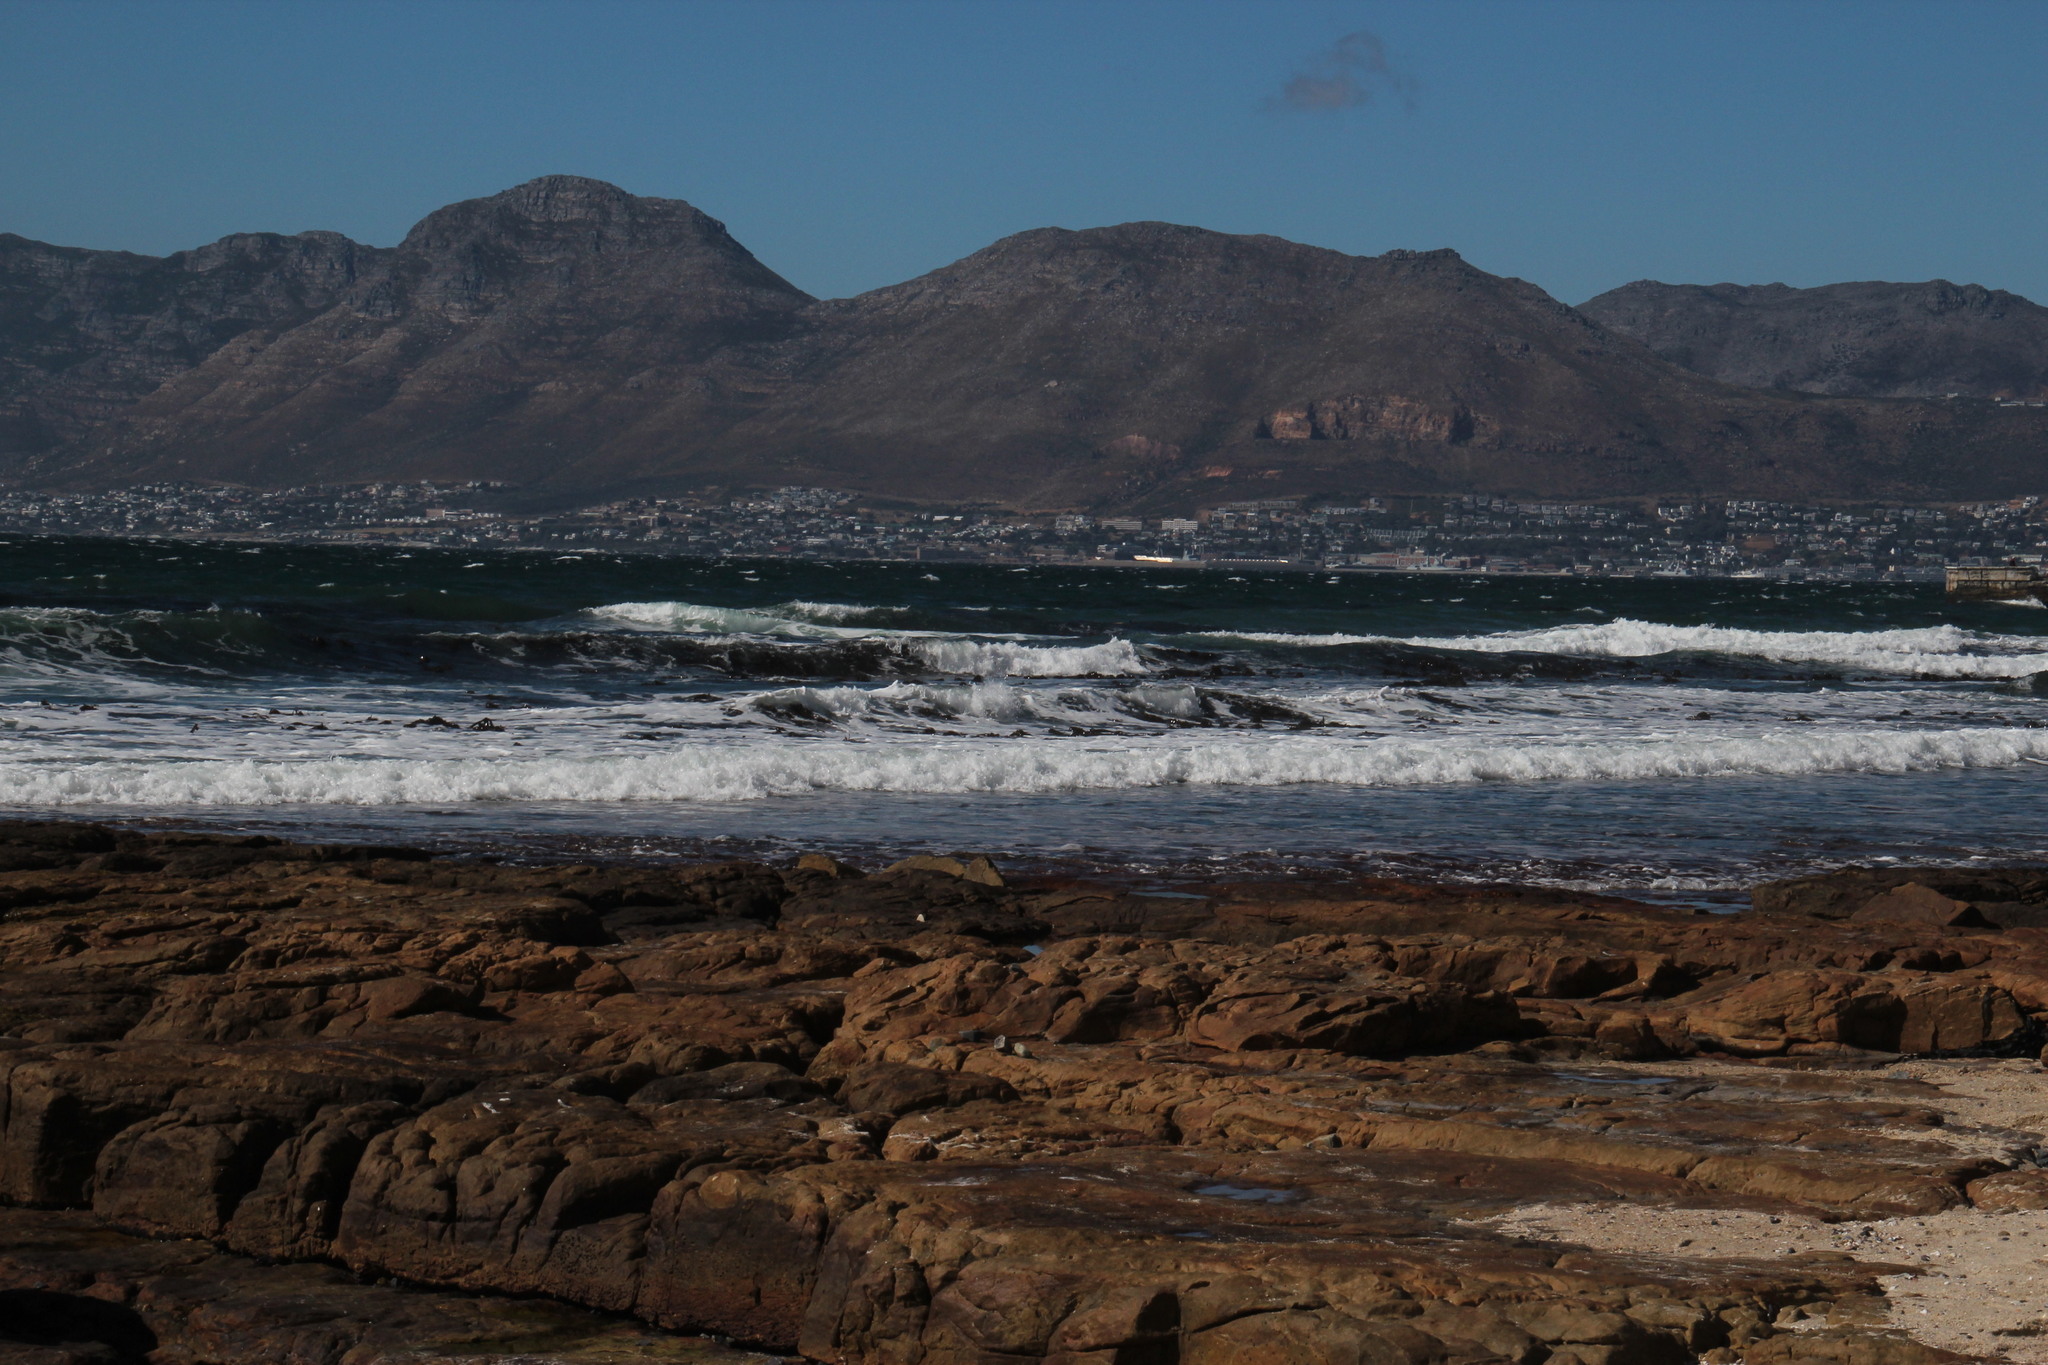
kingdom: Chromista
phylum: Ochrophyta
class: Phaeophyceae
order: Laminariales
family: Lessoniaceae
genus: Ecklonia
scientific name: Ecklonia
